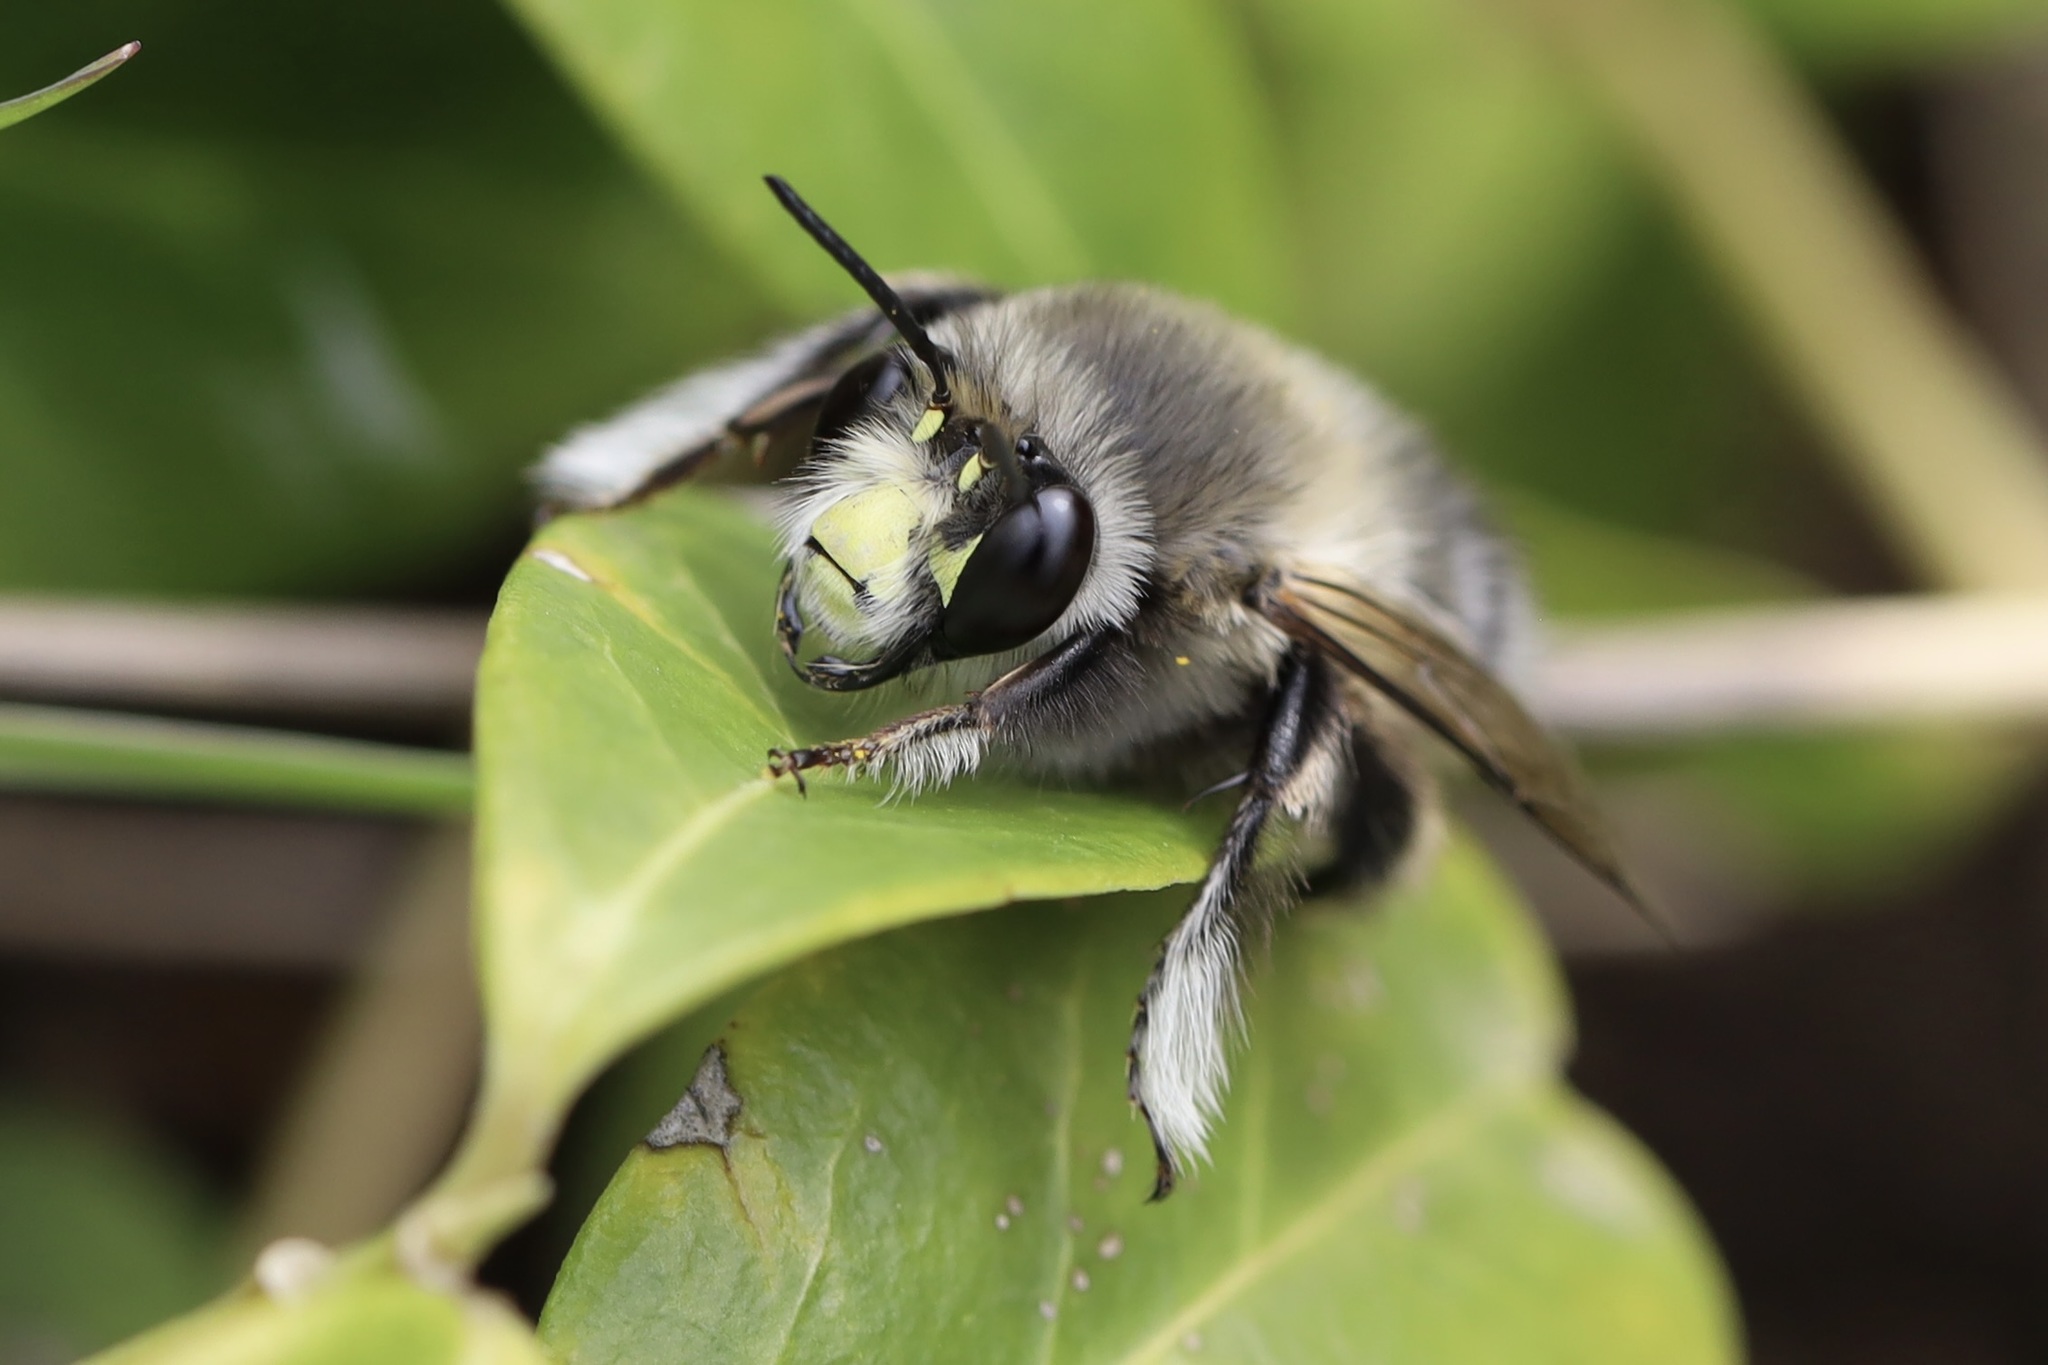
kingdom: Animalia
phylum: Arthropoda
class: Insecta
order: Hymenoptera
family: Apidae
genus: Anthophora
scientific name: Anthophora pacifica
